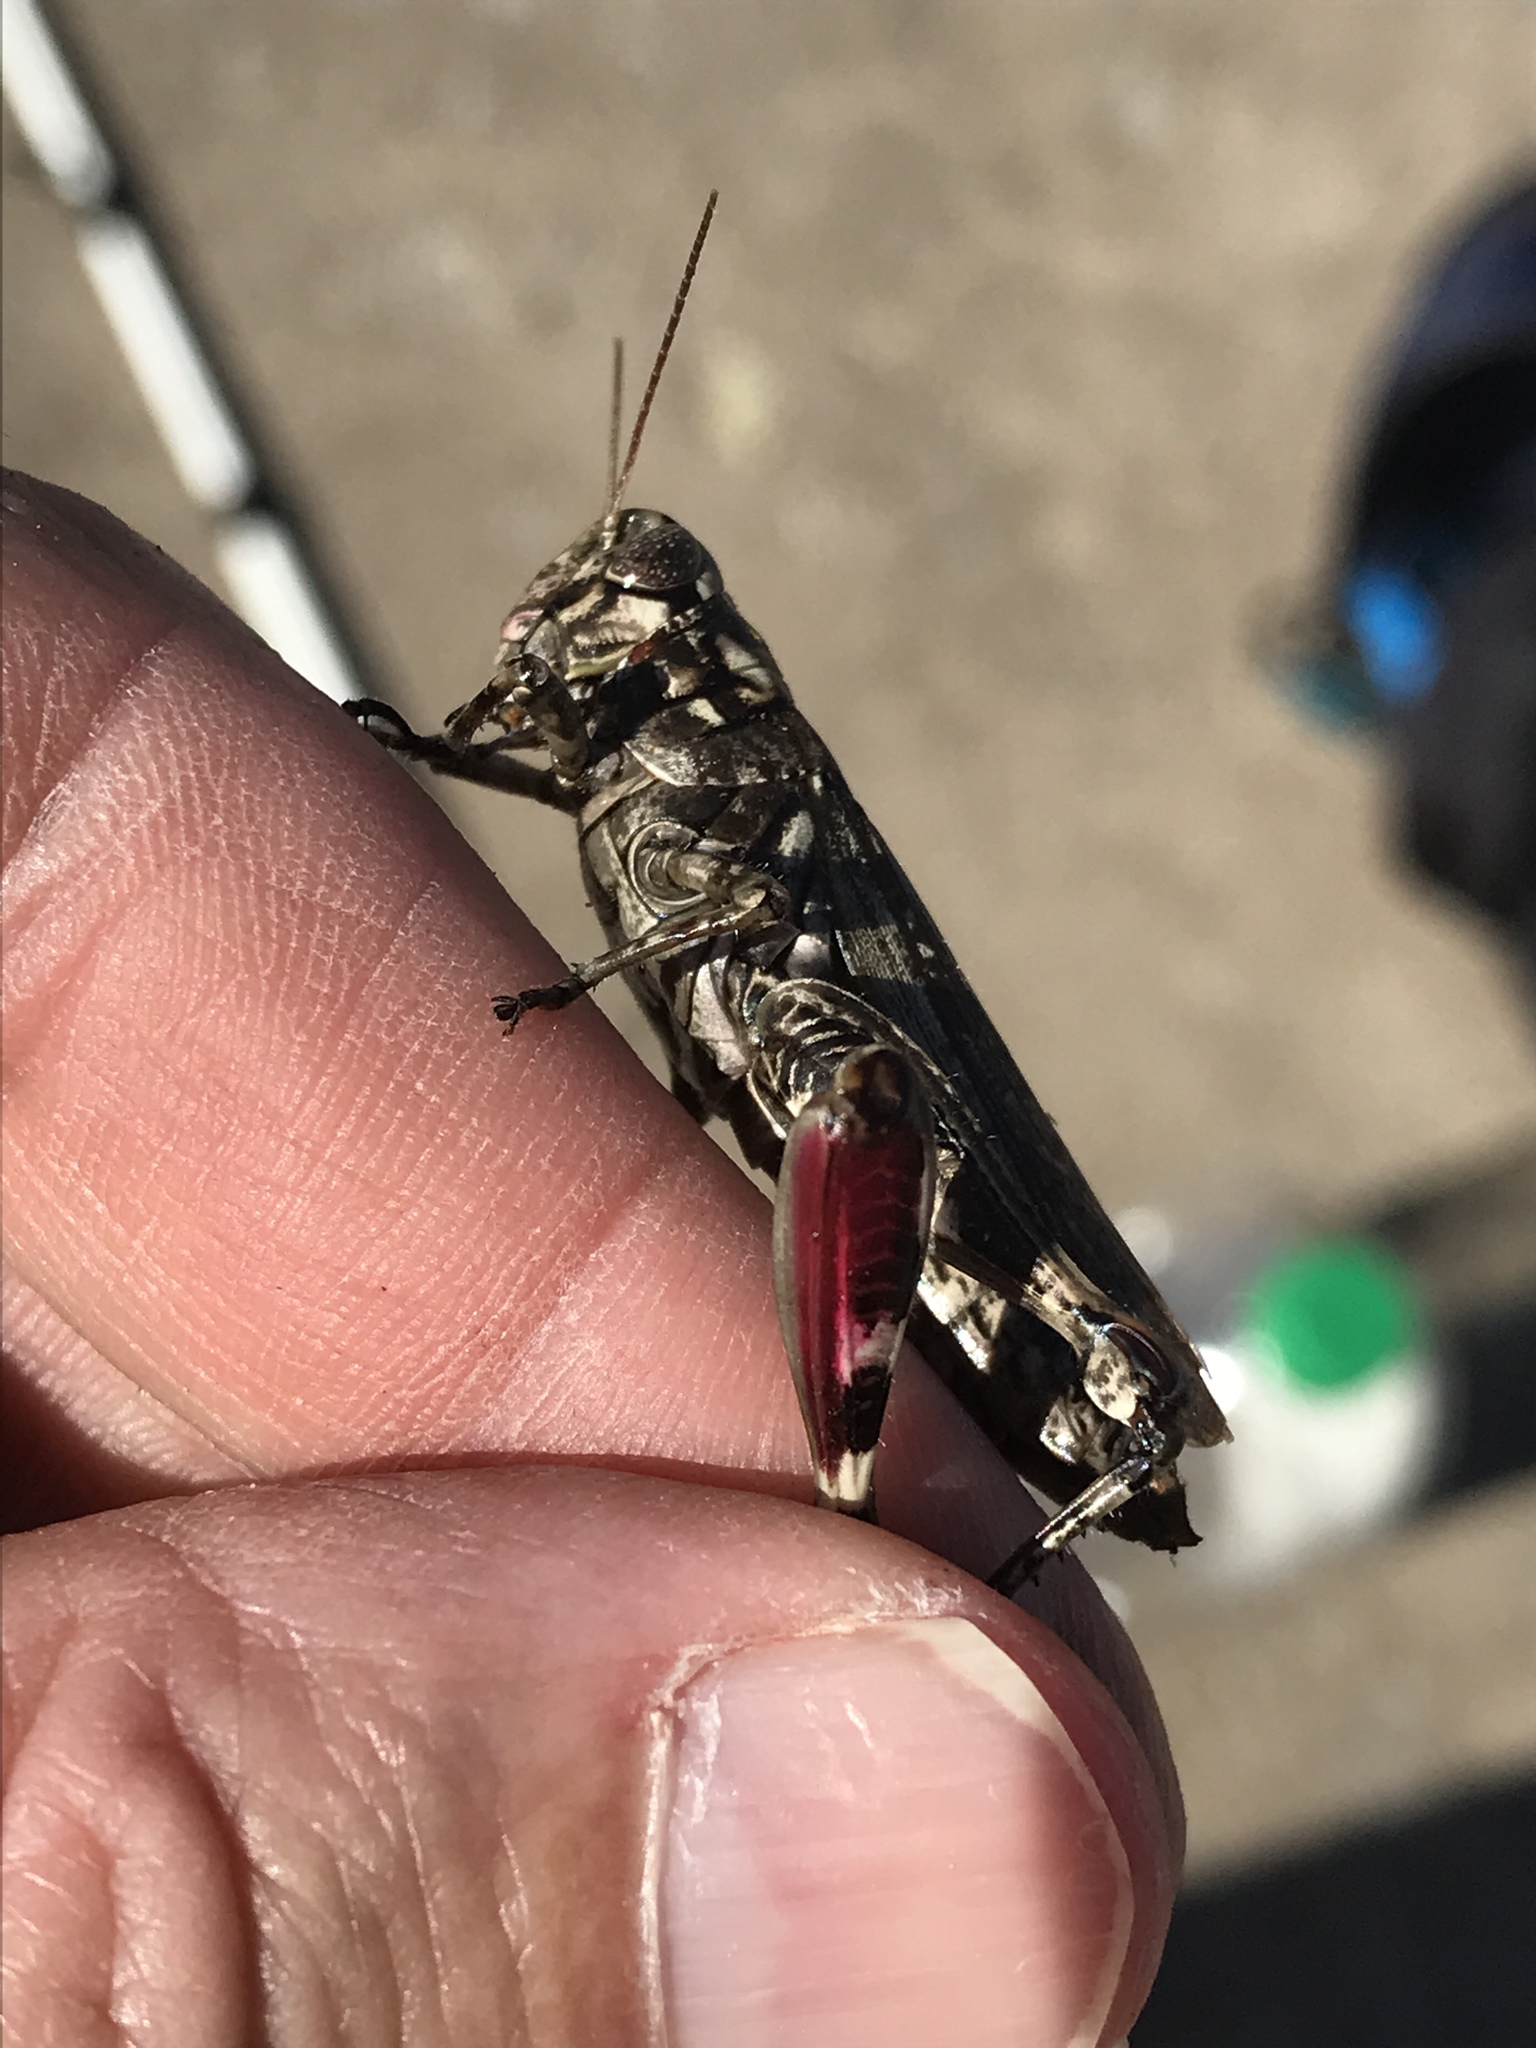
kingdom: Animalia
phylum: Arthropoda
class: Insecta
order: Orthoptera
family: Acrididae
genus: Melanoplus
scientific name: Melanoplus macclungi
